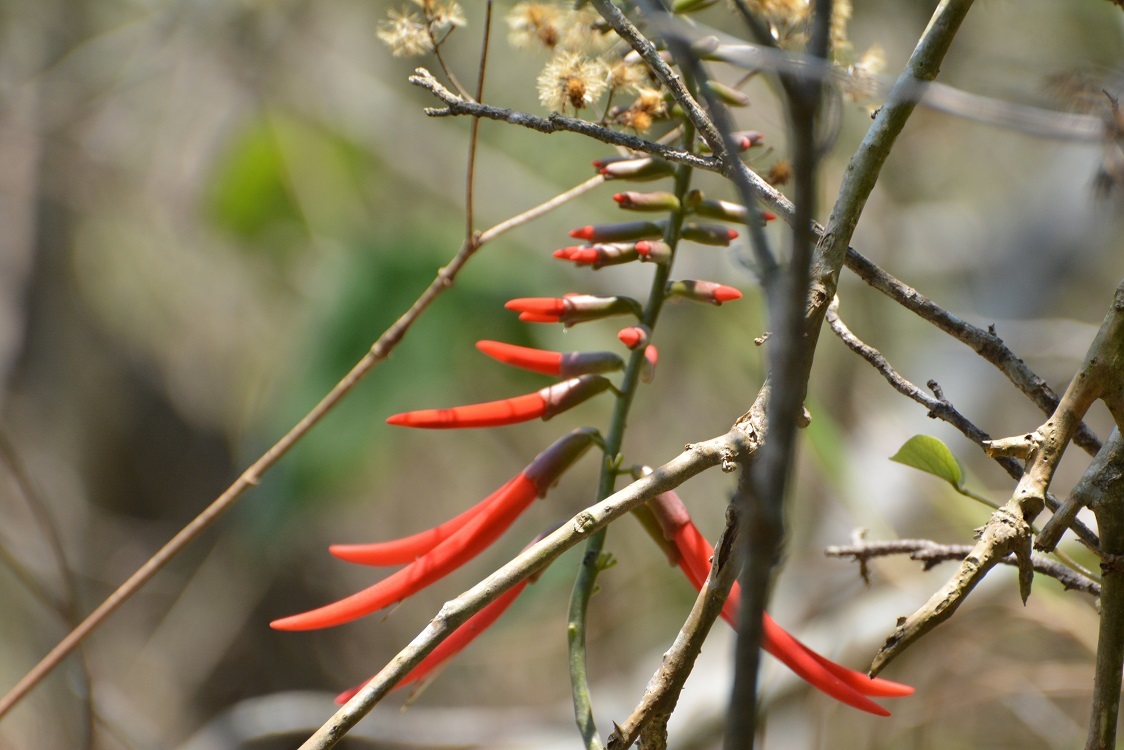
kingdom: Plantae
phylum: Tracheophyta
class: Magnoliopsida
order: Fabales
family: Fabaceae
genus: Erythrina
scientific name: Erythrina goldmanii
